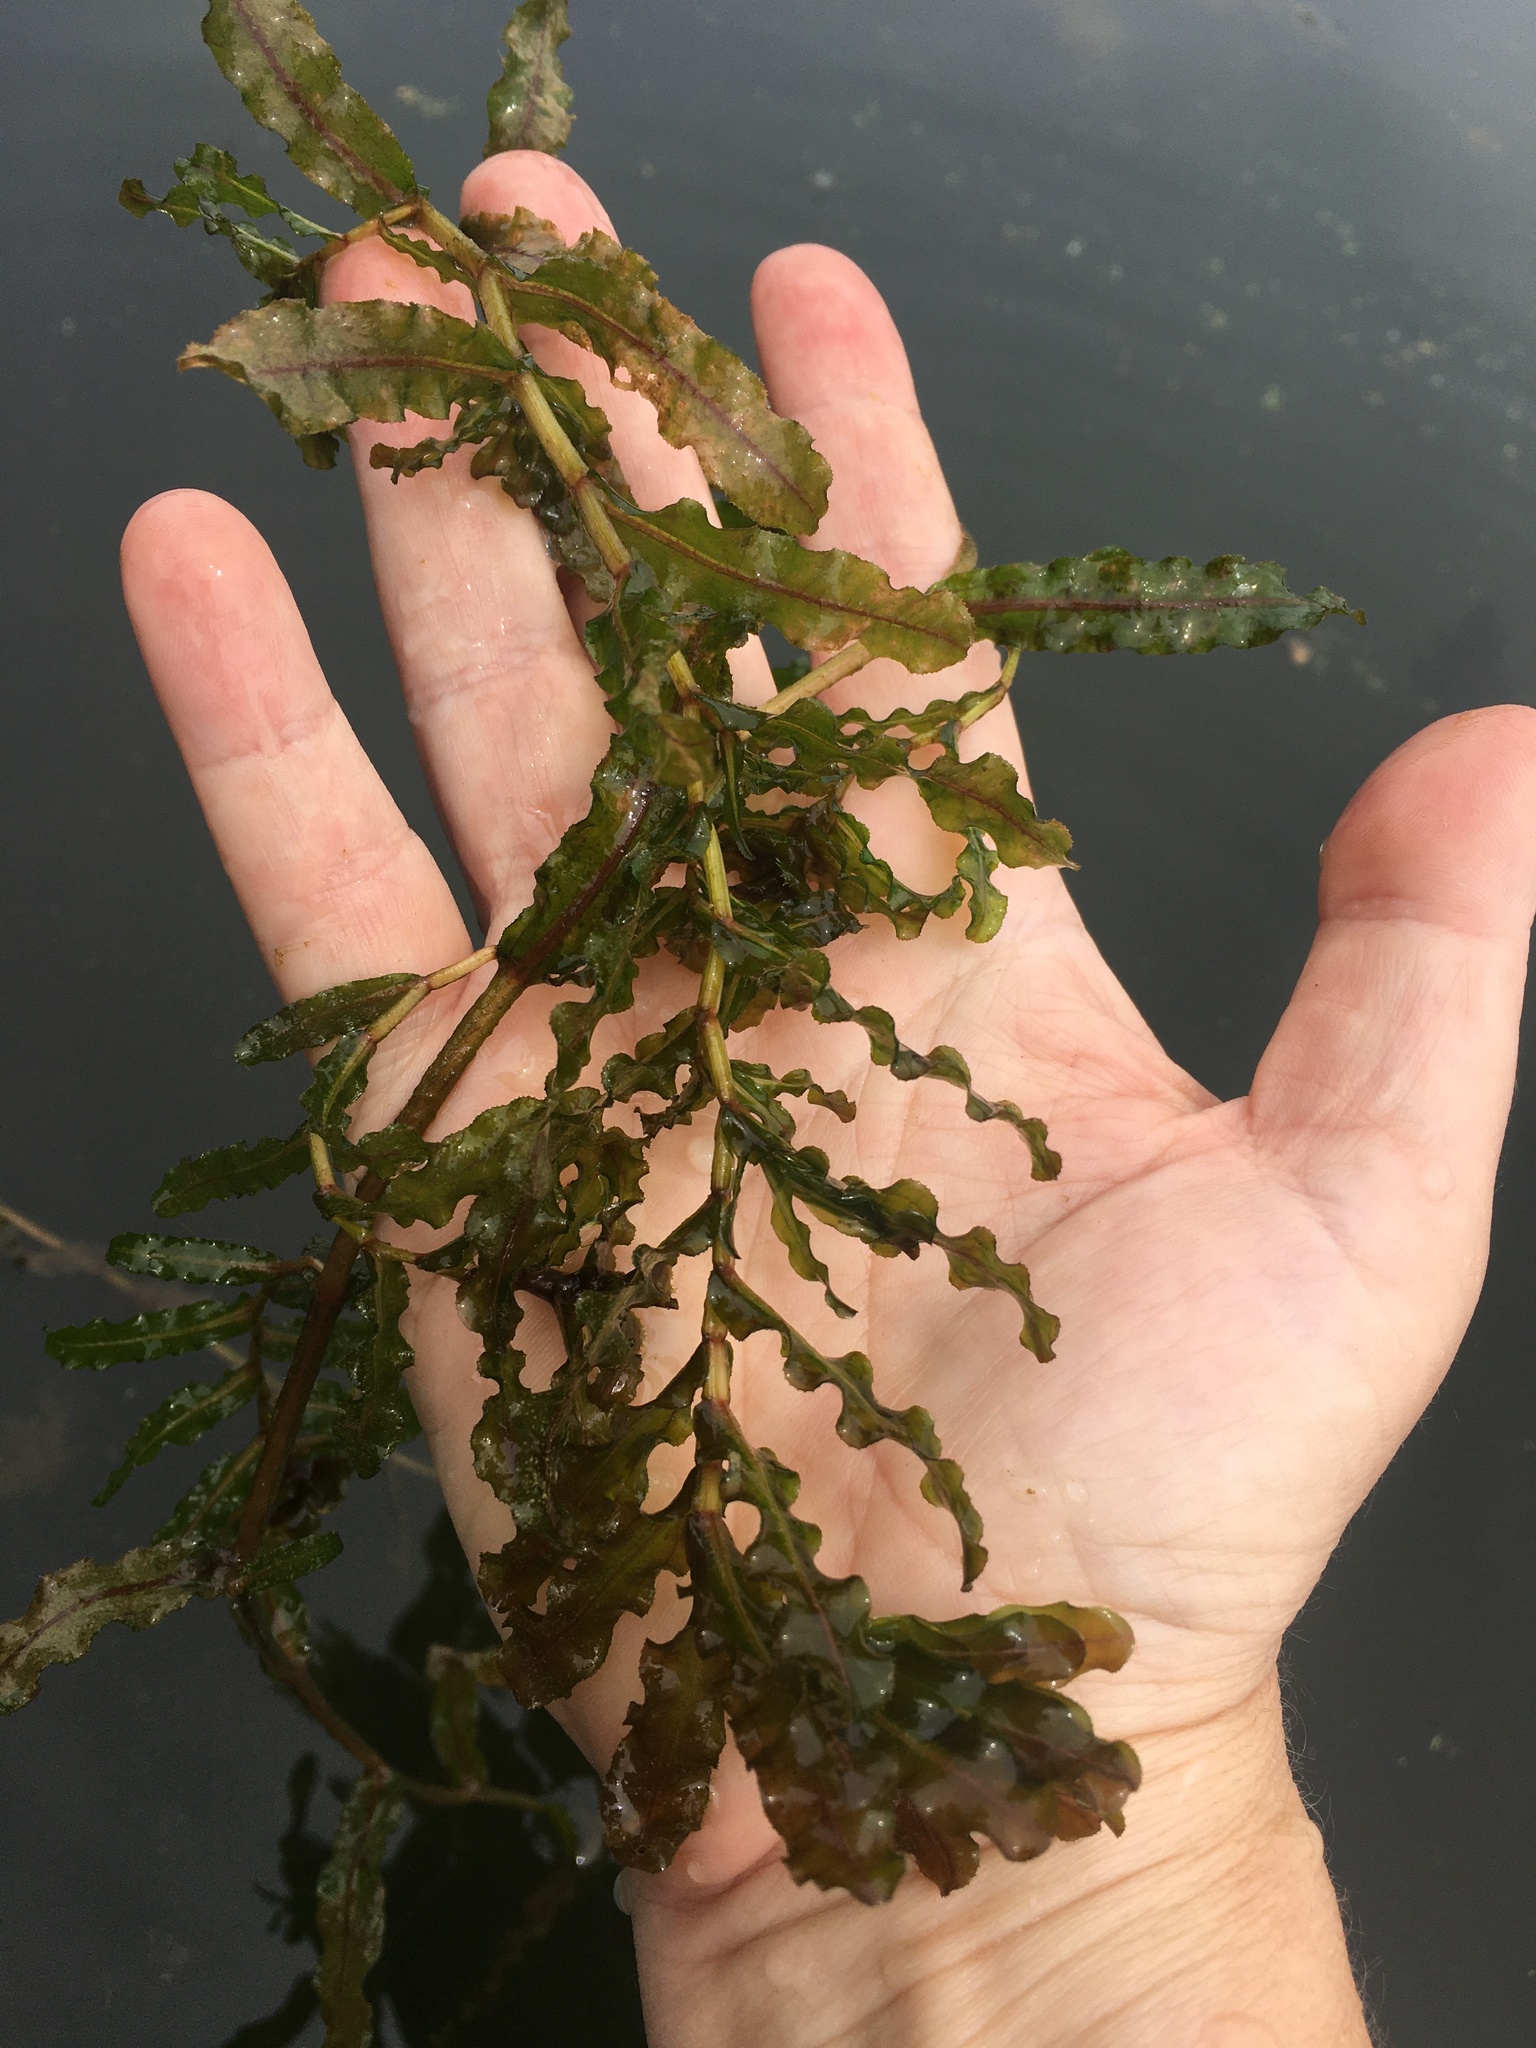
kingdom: Plantae
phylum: Tracheophyta
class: Liliopsida
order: Alismatales
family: Potamogetonaceae
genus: Potamogeton
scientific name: Potamogeton crispus
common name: Curled pondweed
